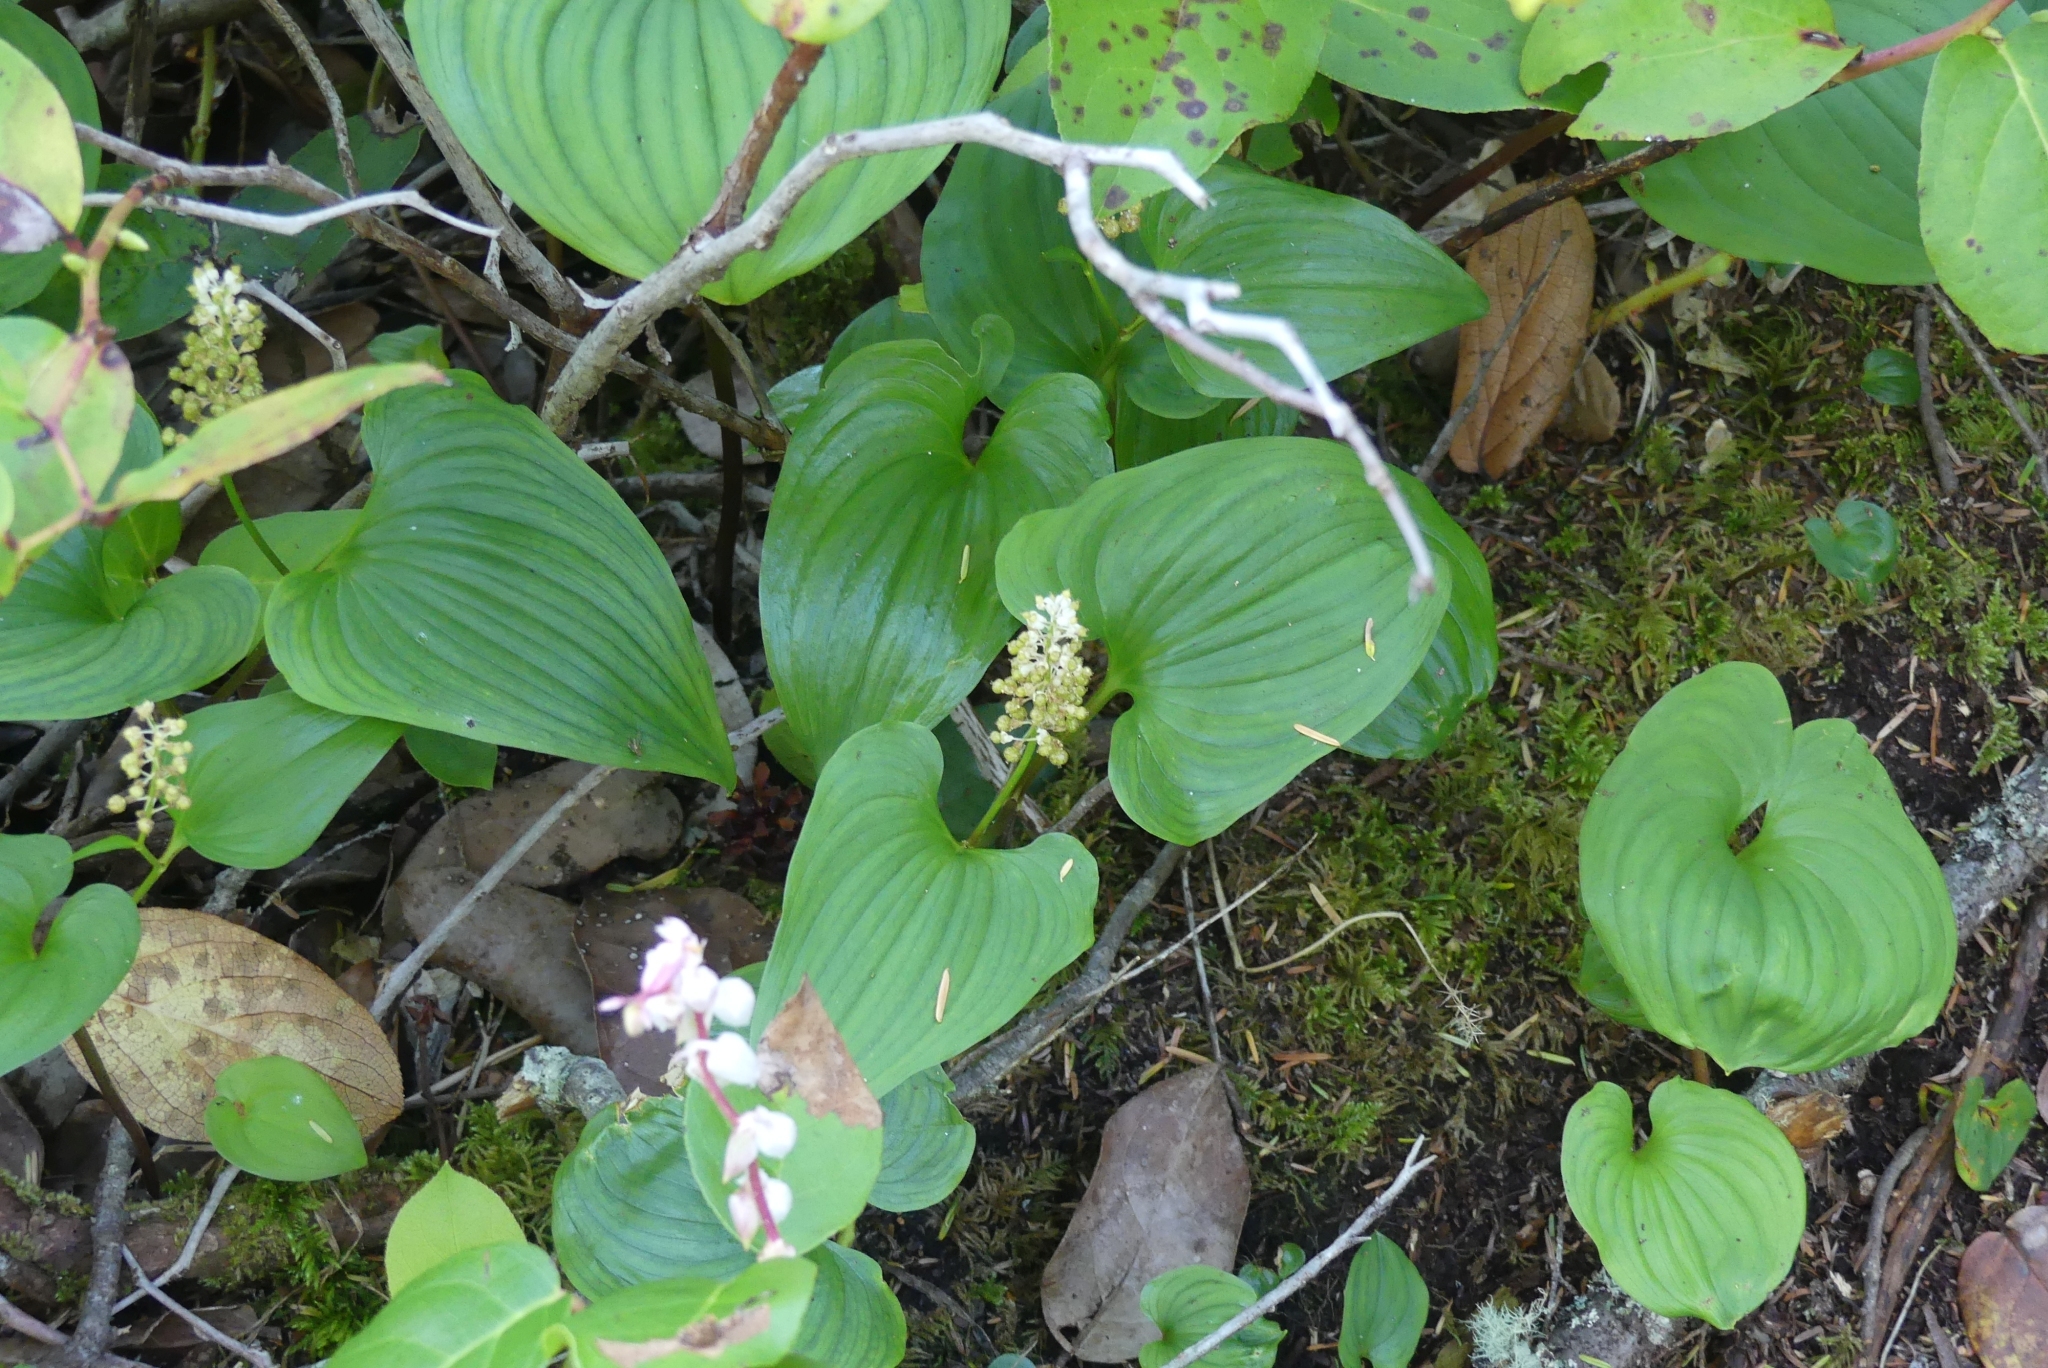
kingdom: Plantae
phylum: Tracheophyta
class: Liliopsida
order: Asparagales
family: Asparagaceae
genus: Maianthemum
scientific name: Maianthemum dilatatum
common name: False lily-of-the-valley
